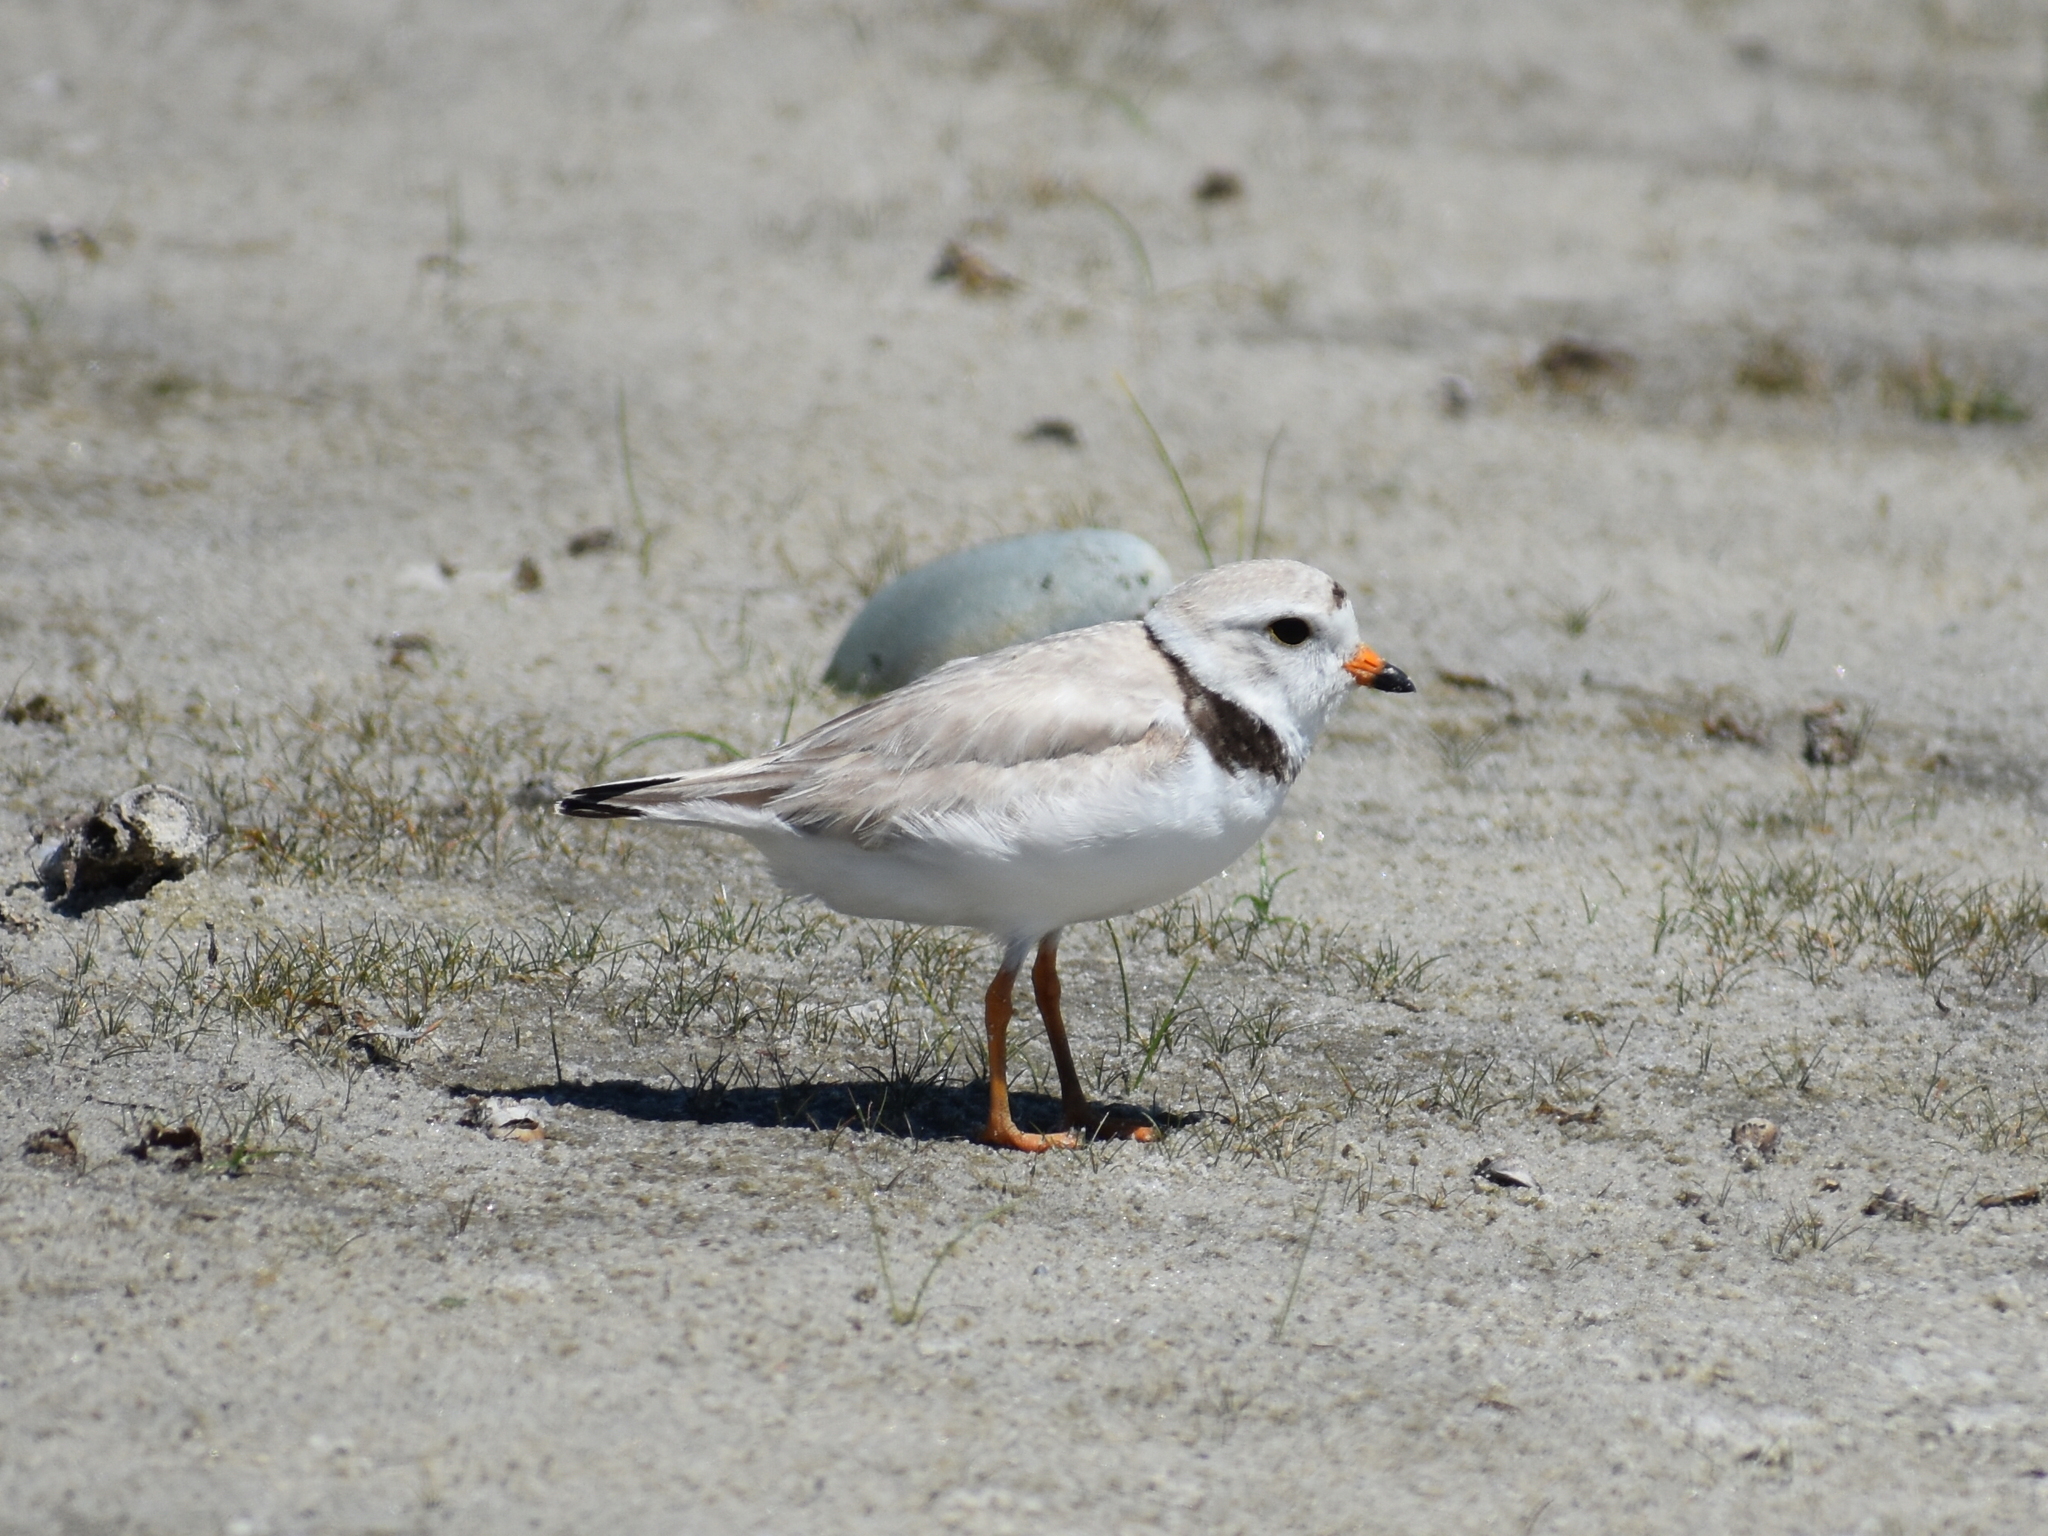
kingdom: Animalia
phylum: Chordata
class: Aves
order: Charadriiformes
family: Charadriidae
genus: Charadrius
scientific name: Charadrius melodus
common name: Piping plover
